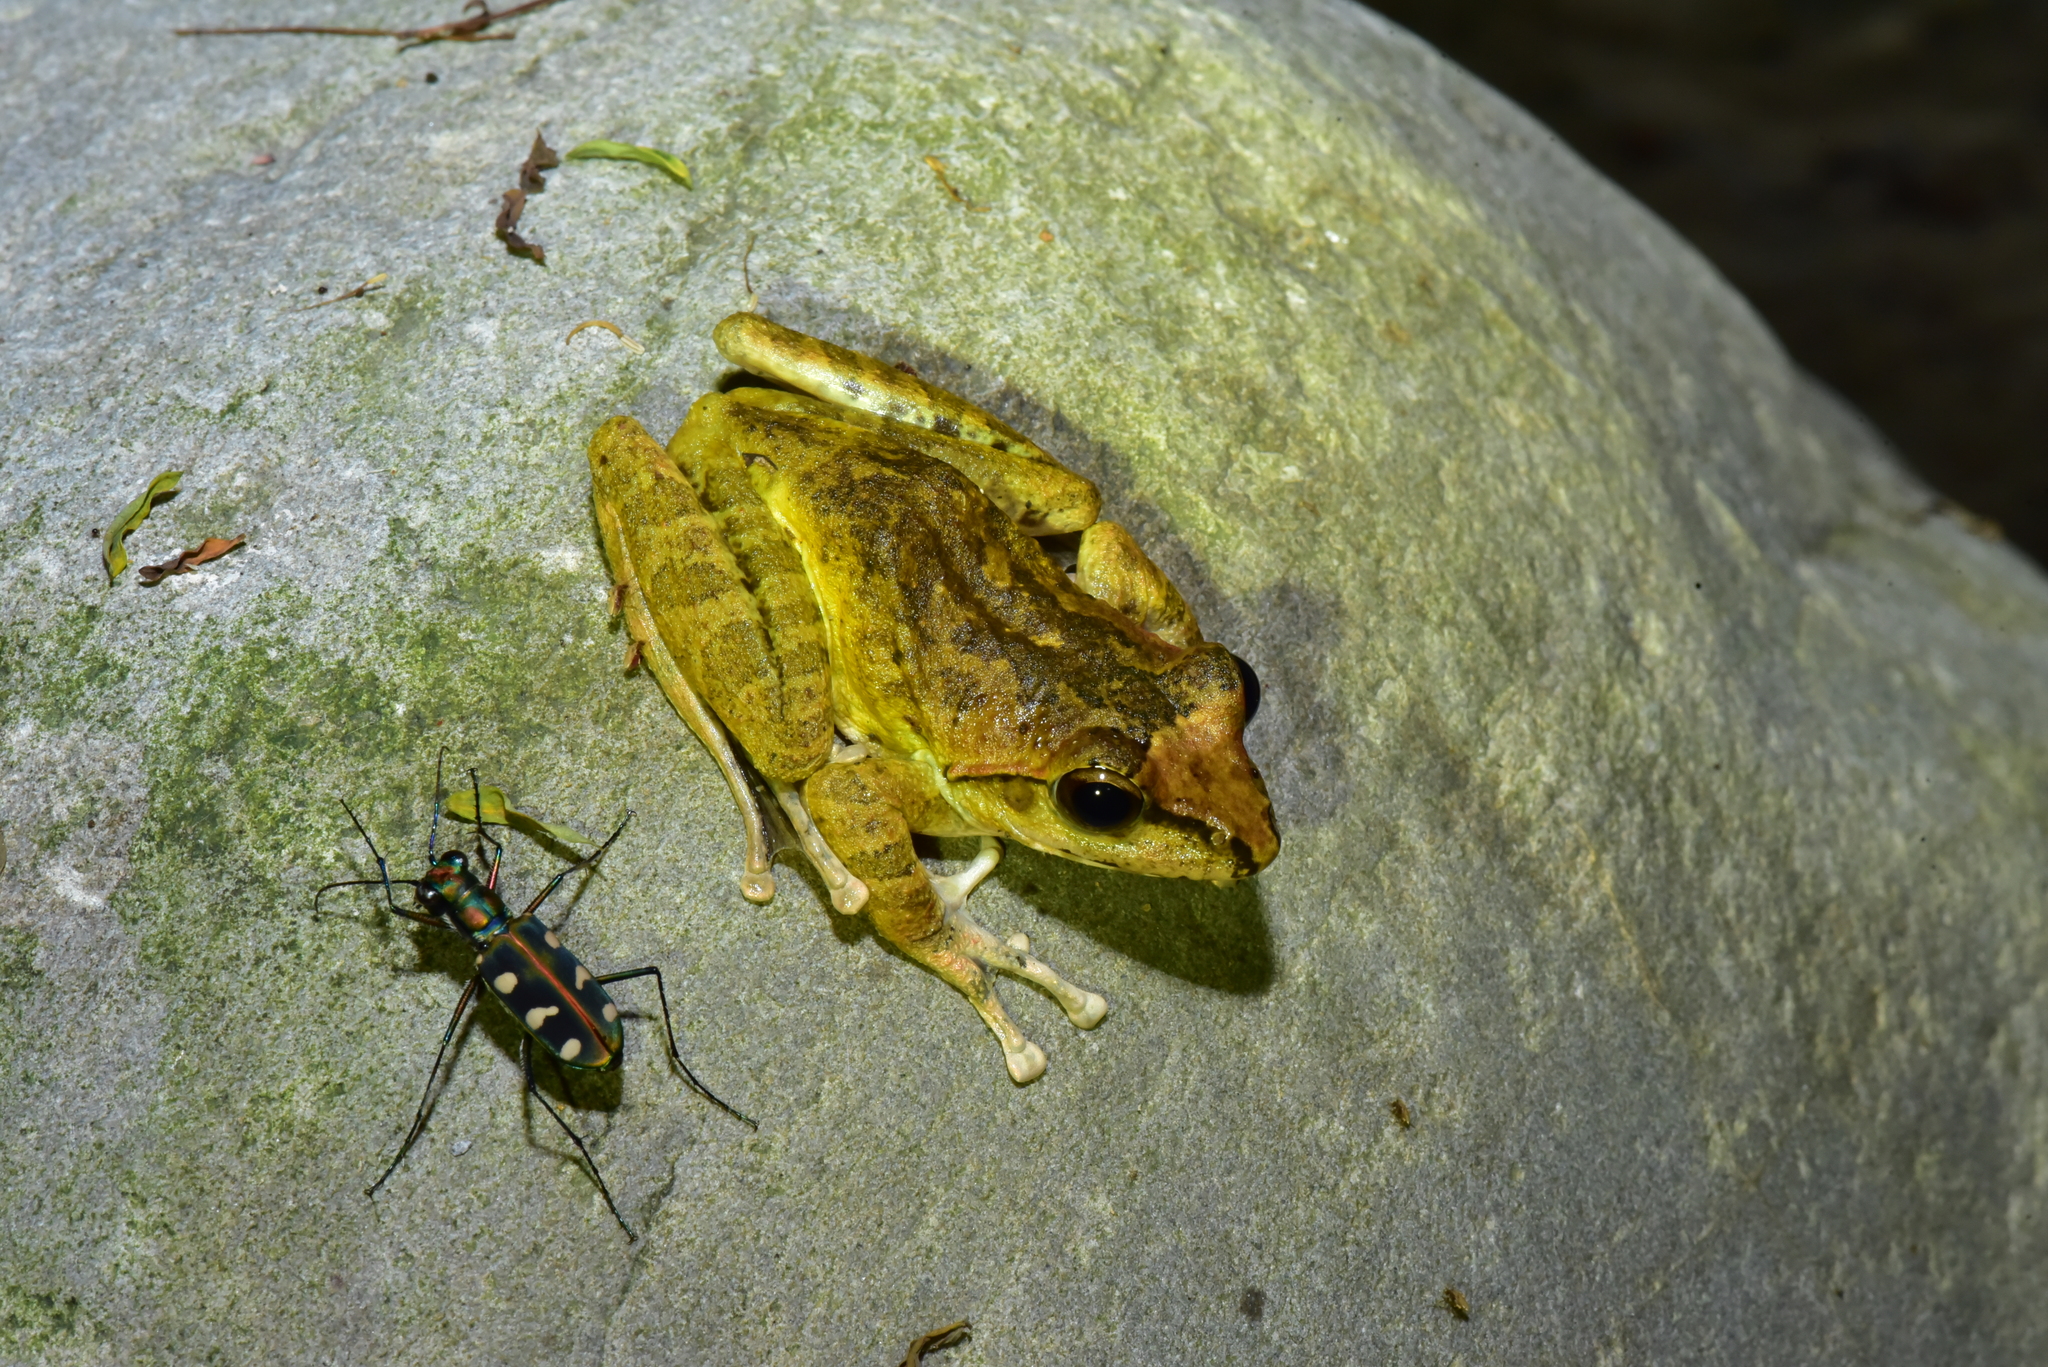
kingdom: Animalia
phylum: Chordata
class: Amphibia
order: Anura
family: Rhacophoridae
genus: Buergeria
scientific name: Buergeria robusta
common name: Brown treefrog
